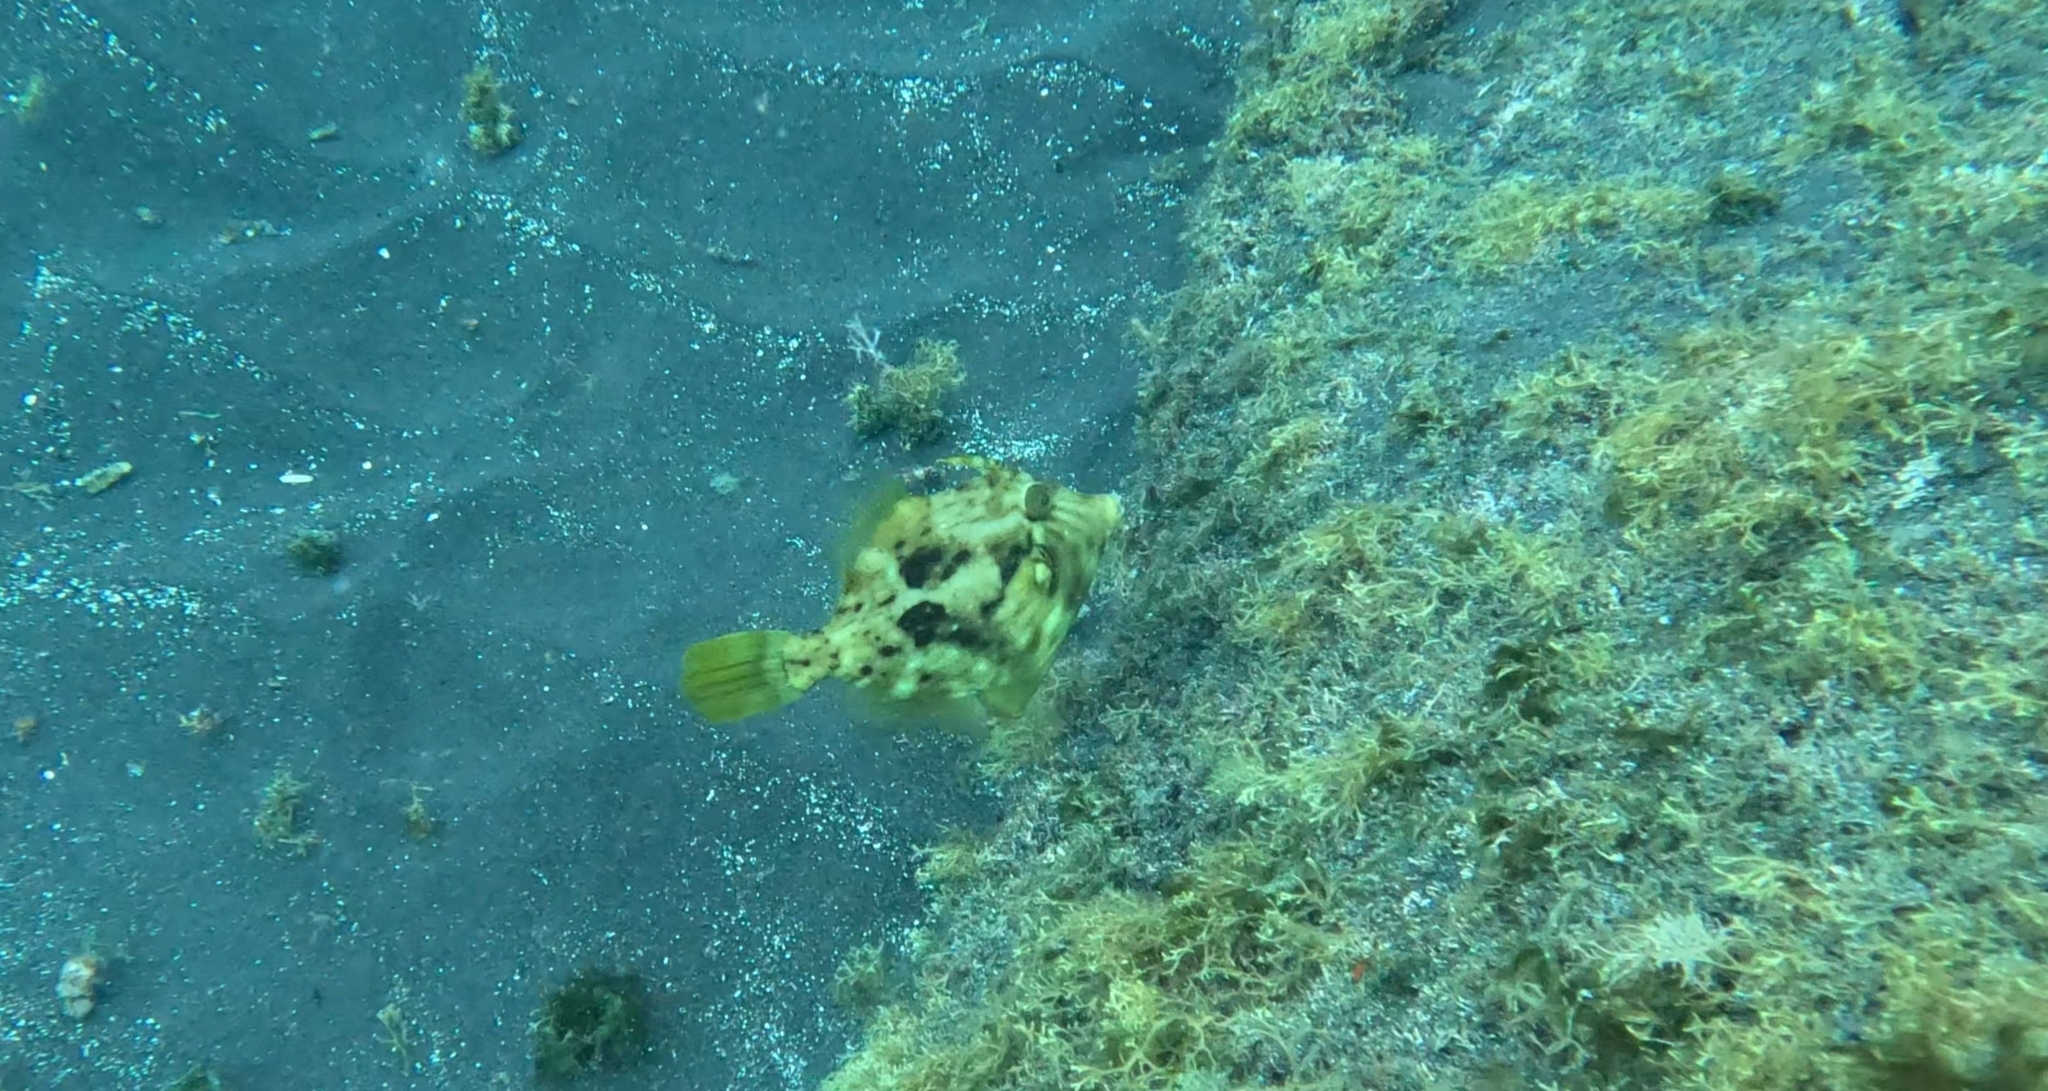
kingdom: Animalia
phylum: Chordata
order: Tetraodontiformes
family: Monacanthidae
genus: Stephanolepis
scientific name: Stephanolepis hispidus
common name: Planehead filefish
